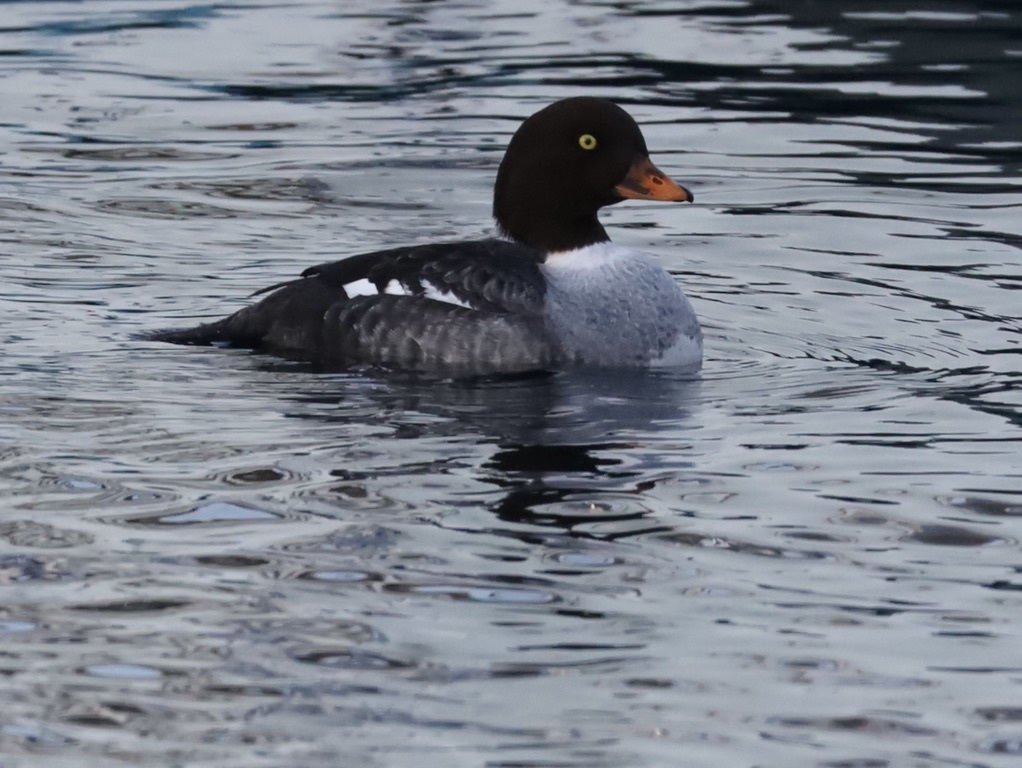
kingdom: Animalia
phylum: Chordata
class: Aves
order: Anseriformes
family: Anatidae
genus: Bucephala
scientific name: Bucephala islandica
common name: Barrow's goldeneye
